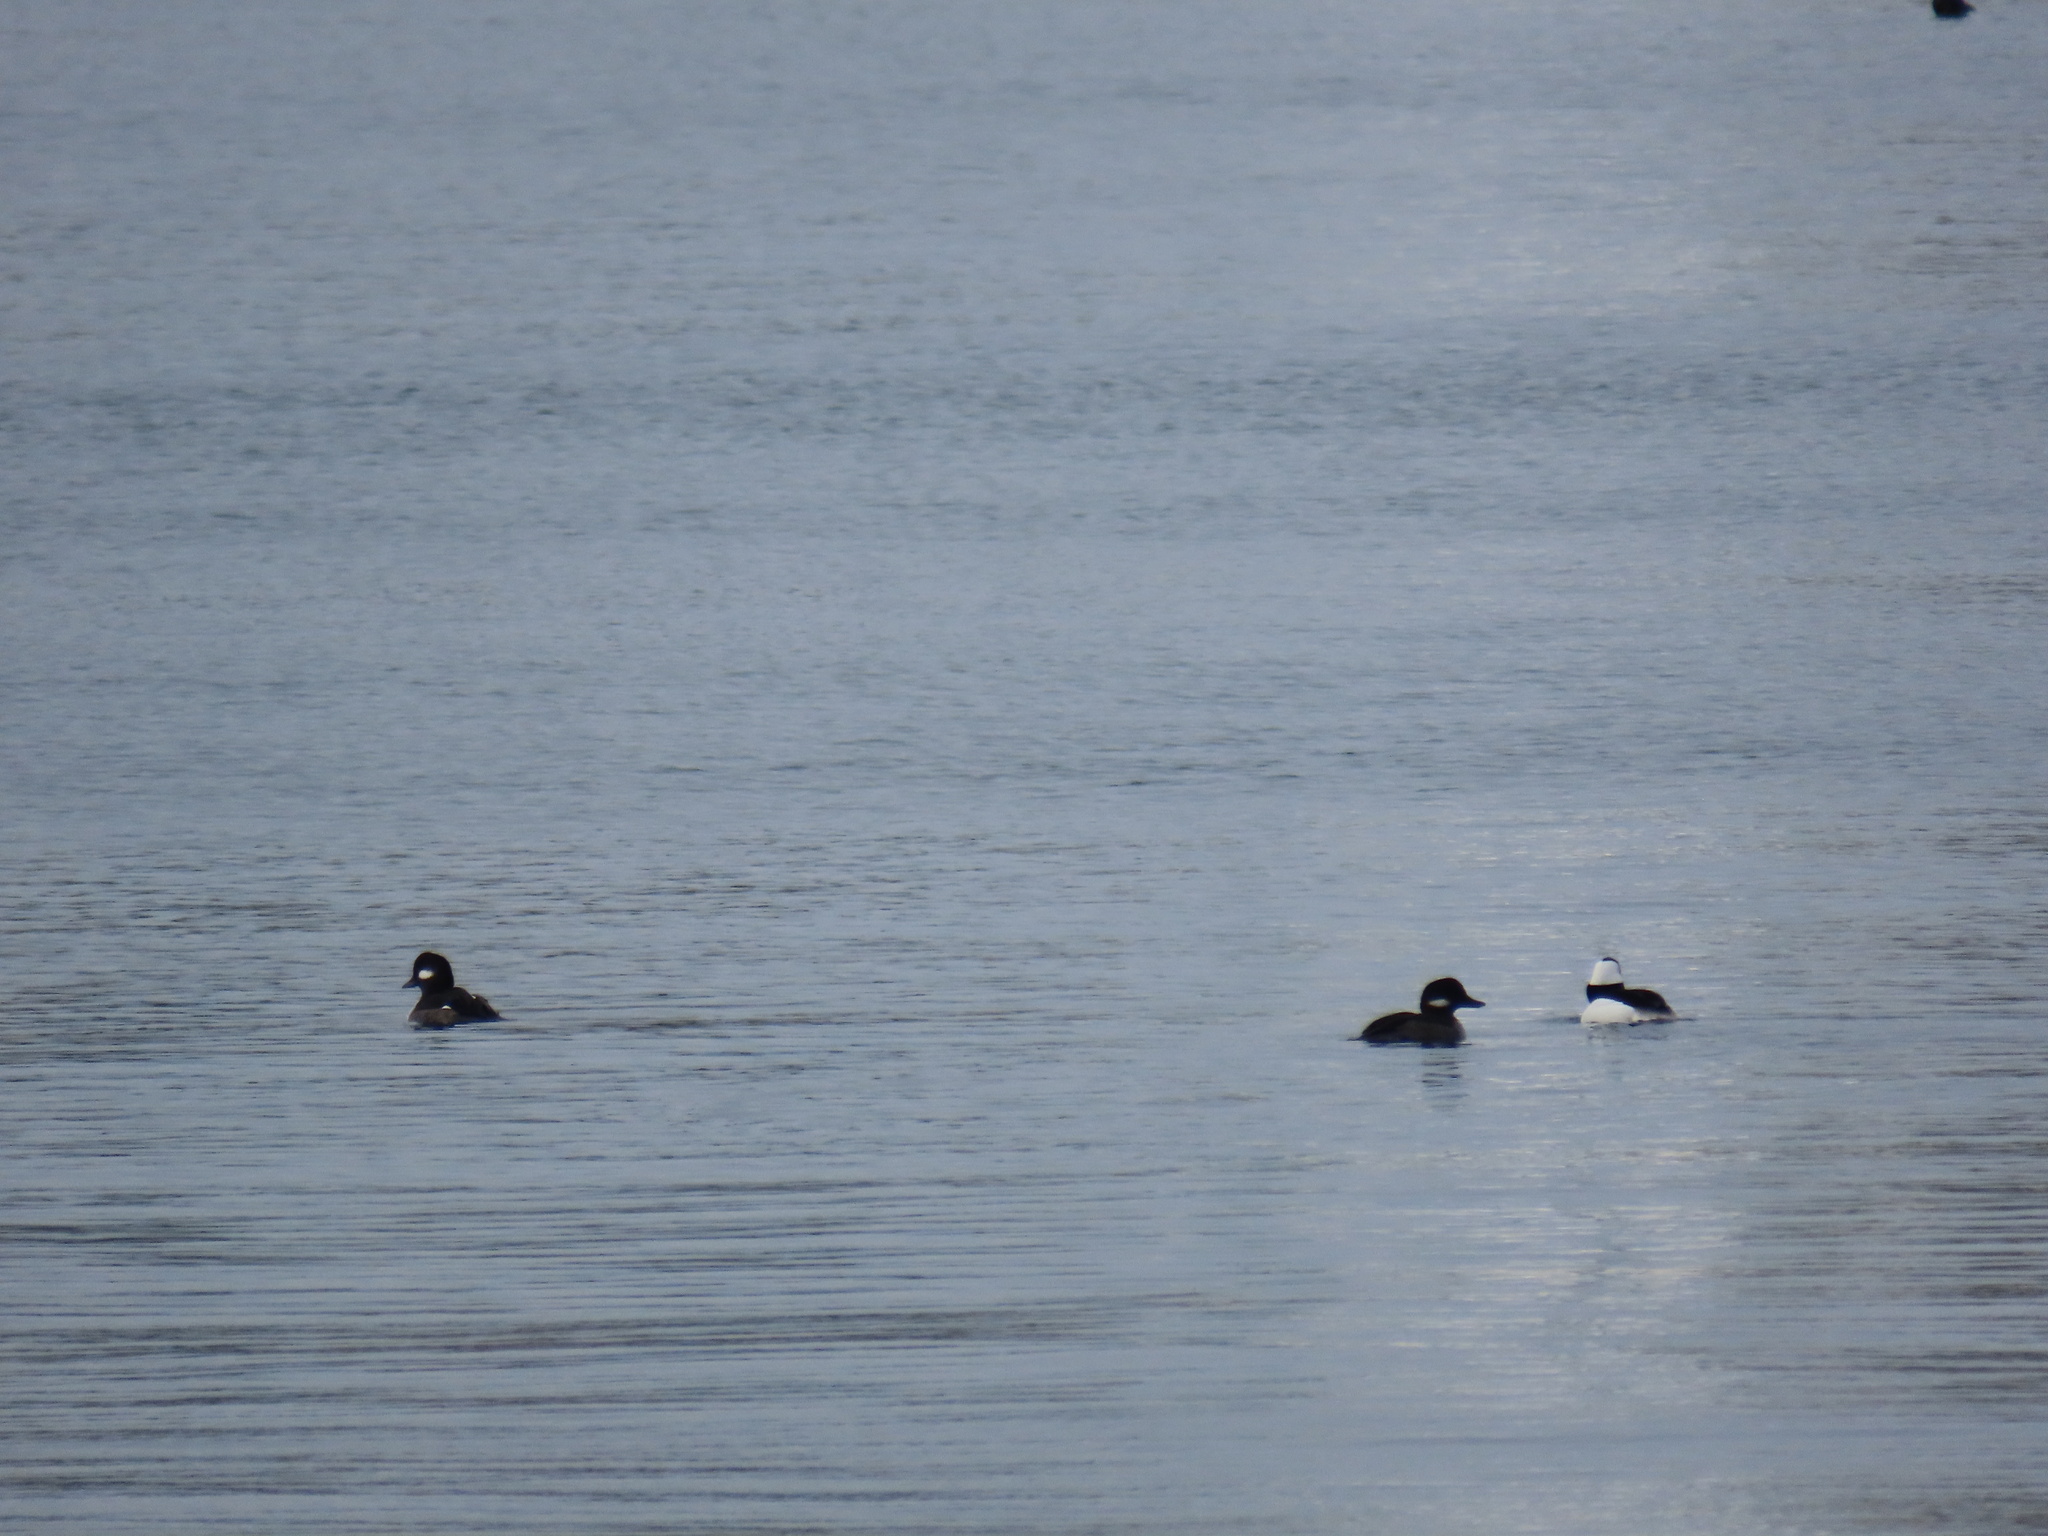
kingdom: Animalia
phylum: Chordata
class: Aves
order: Anseriformes
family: Anatidae
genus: Bucephala
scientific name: Bucephala albeola
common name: Bufflehead
